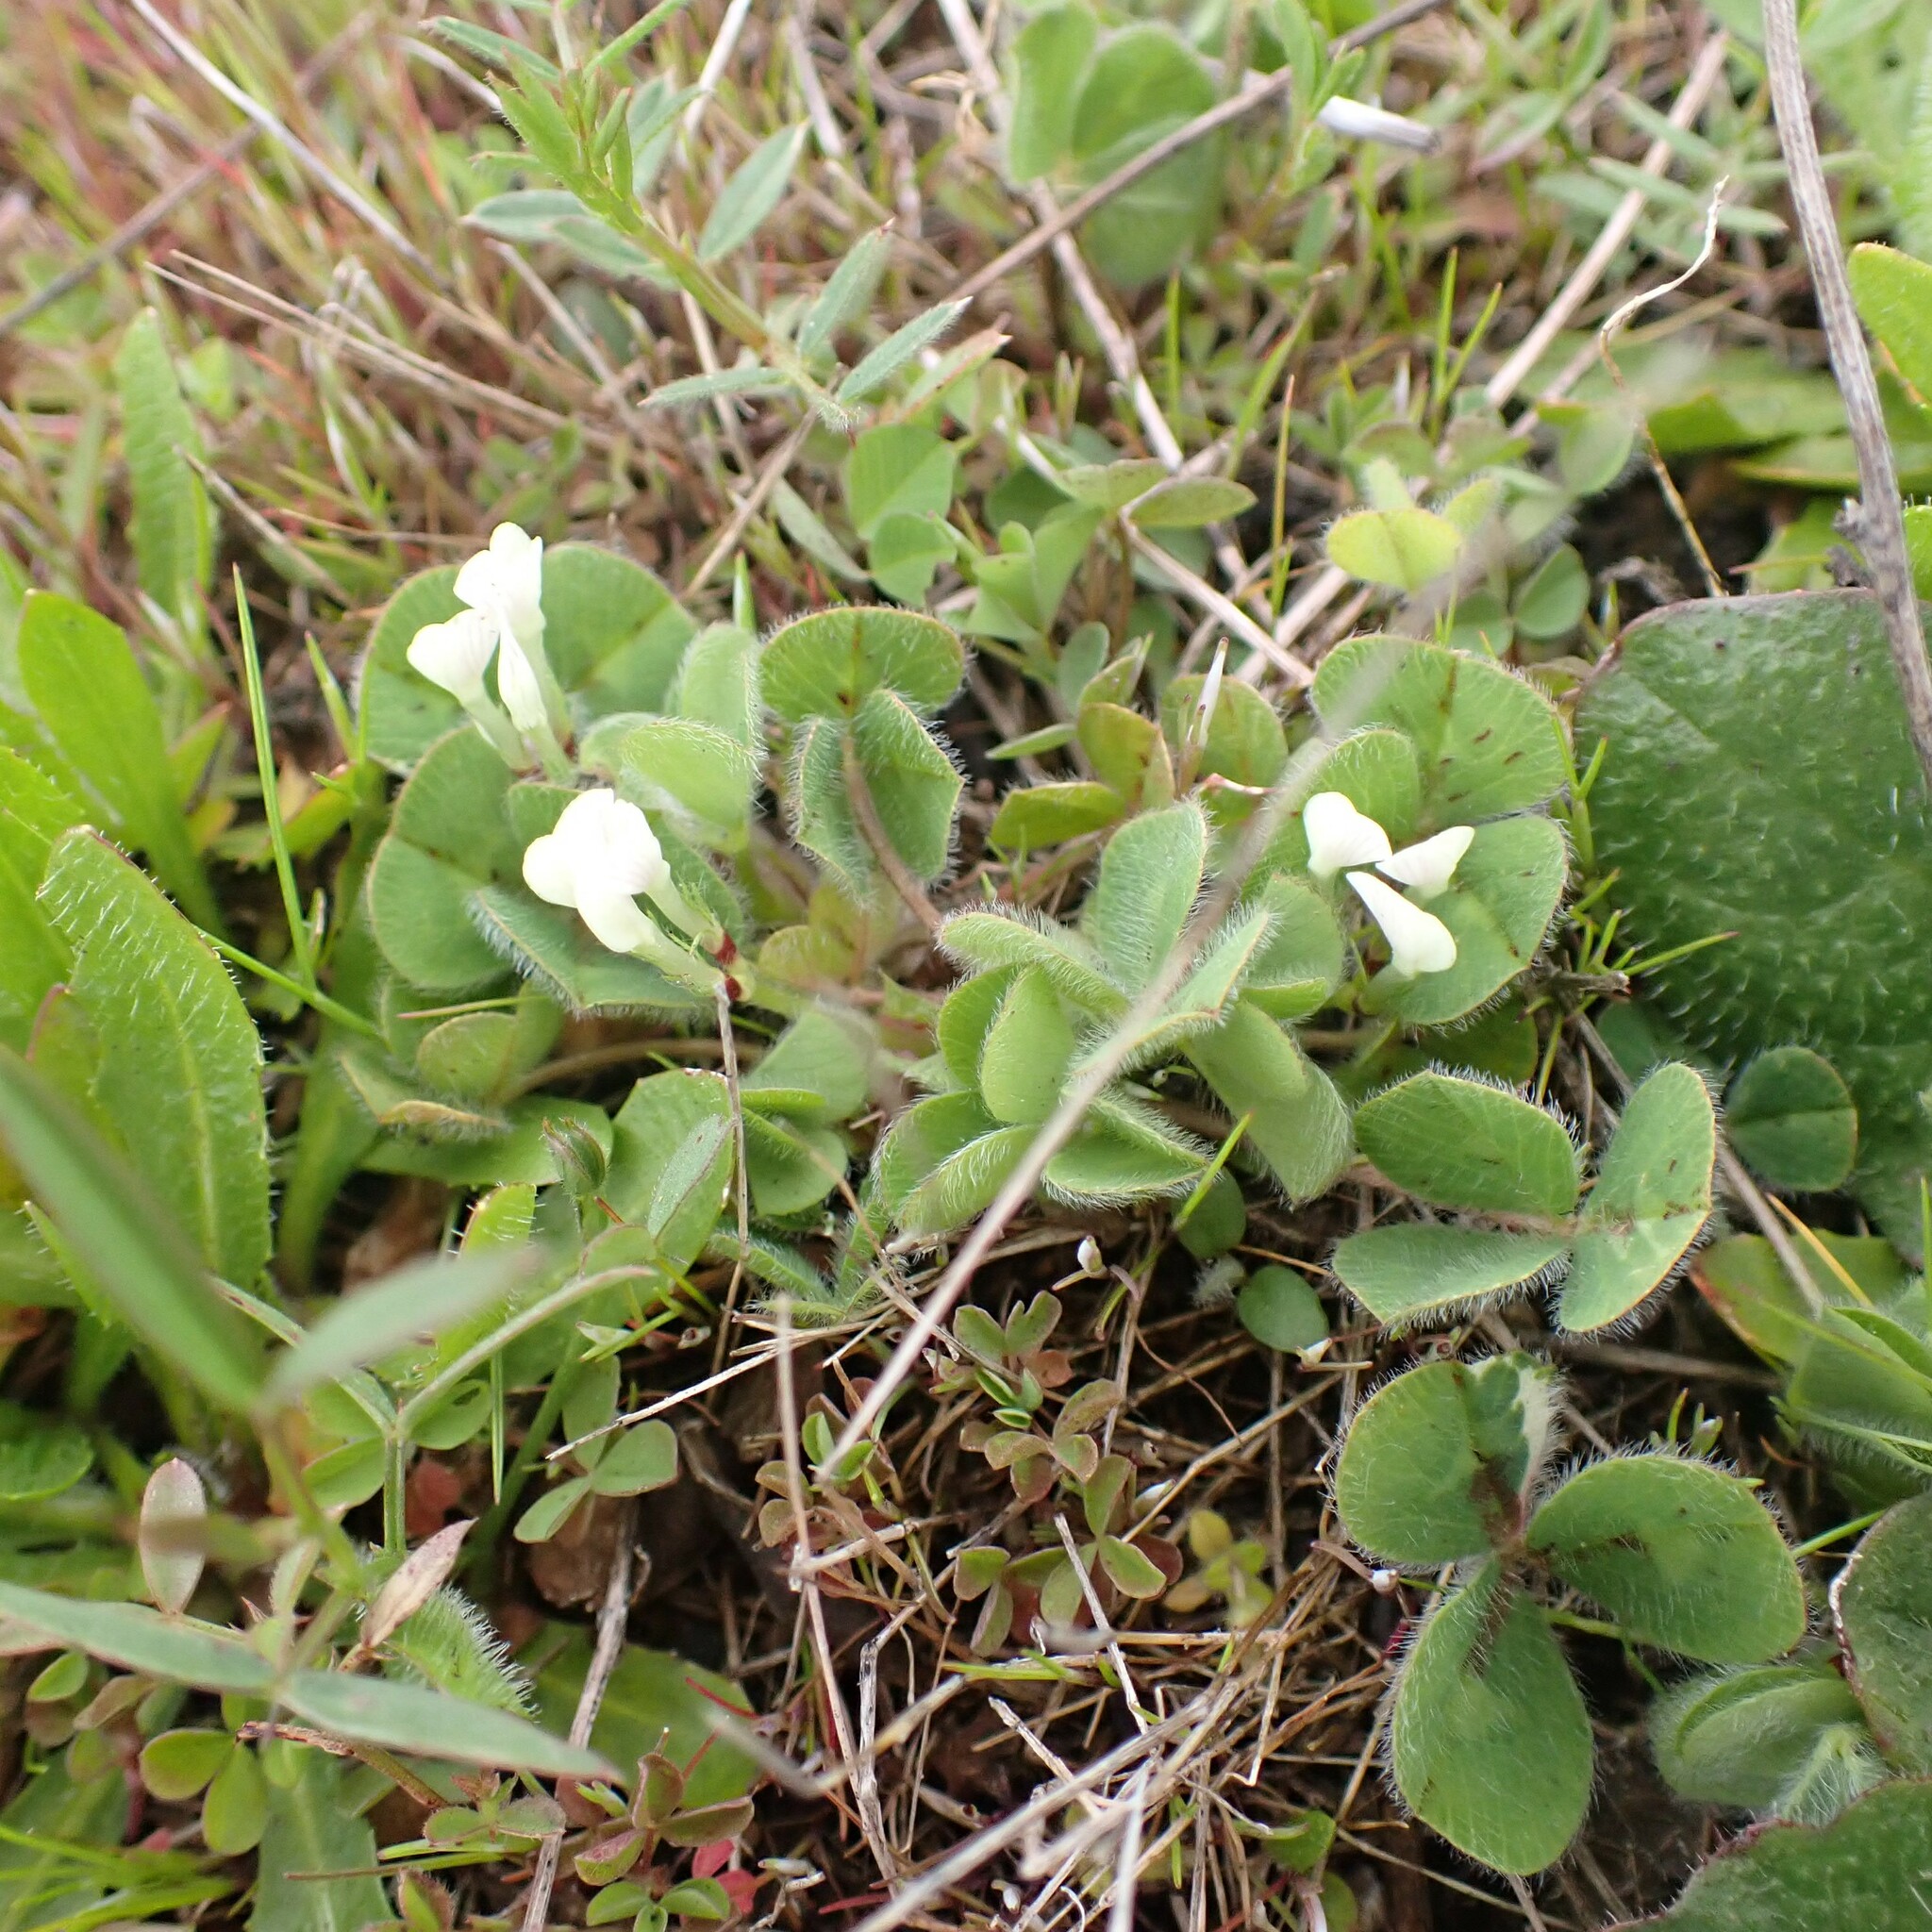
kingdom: Plantae
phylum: Tracheophyta
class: Magnoliopsida
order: Fabales
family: Fabaceae
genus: Trifolium
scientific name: Trifolium subterraneum
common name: Subterranean clover
